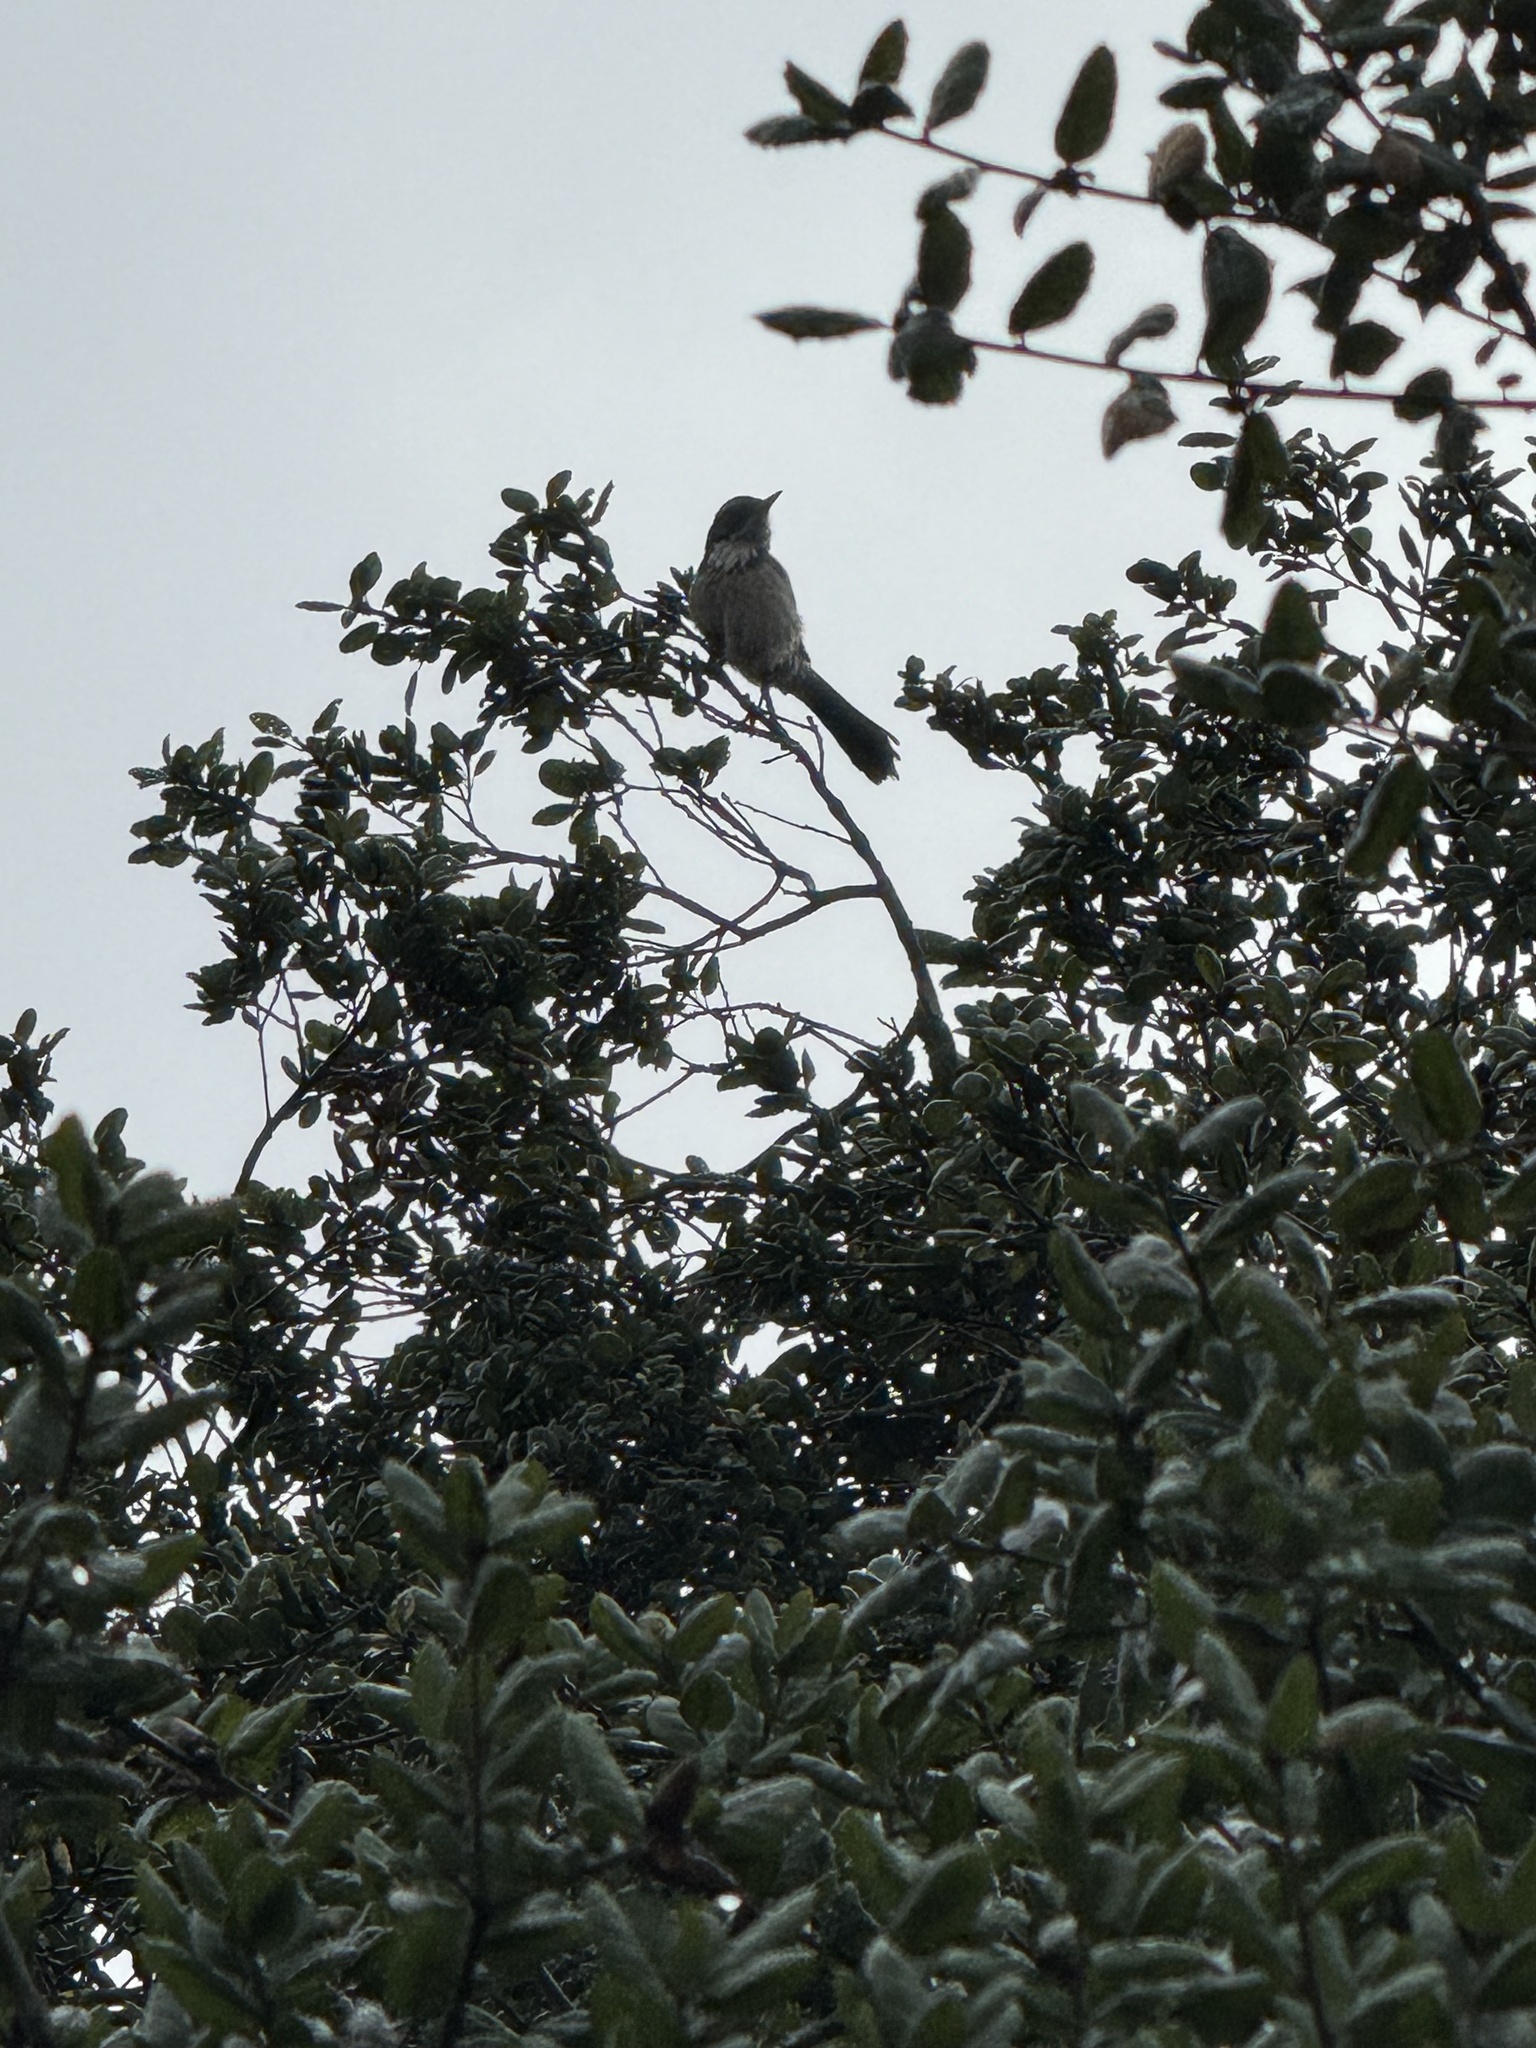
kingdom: Animalia
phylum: Chordata
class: Aves
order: Passeriformes
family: Corvidae
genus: Aphelocoma
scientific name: Aphelocoma californica
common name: California scrub-jay
